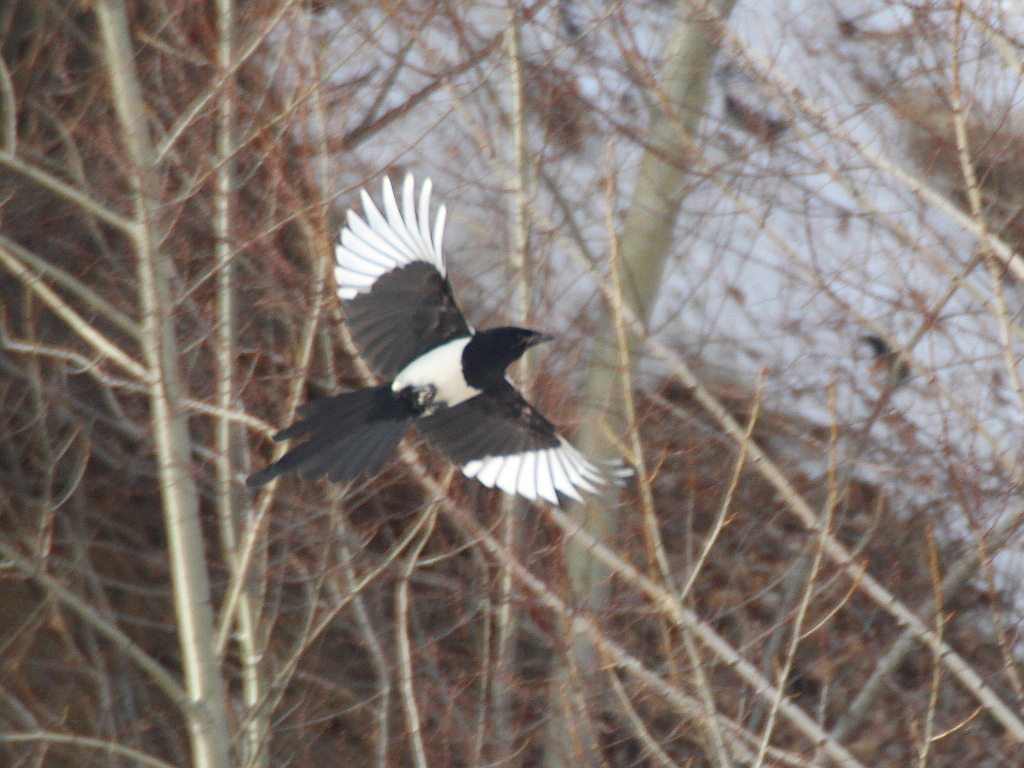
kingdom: Animalia
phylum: Chordata
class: Aves
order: Passeriformes
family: Corvidae
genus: Pica
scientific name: Pica pica
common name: Eurasian magpie
